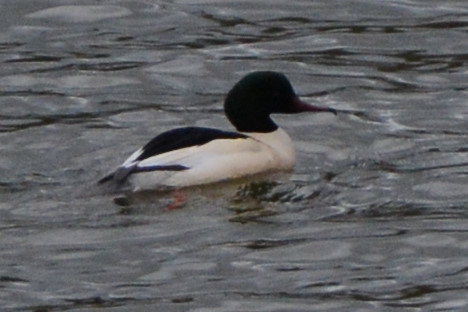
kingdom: Animalia
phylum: Chordata
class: Aves
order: Anseriformes
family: Anatidae
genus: Mergus
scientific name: Mergus merganser
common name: Common merganser
